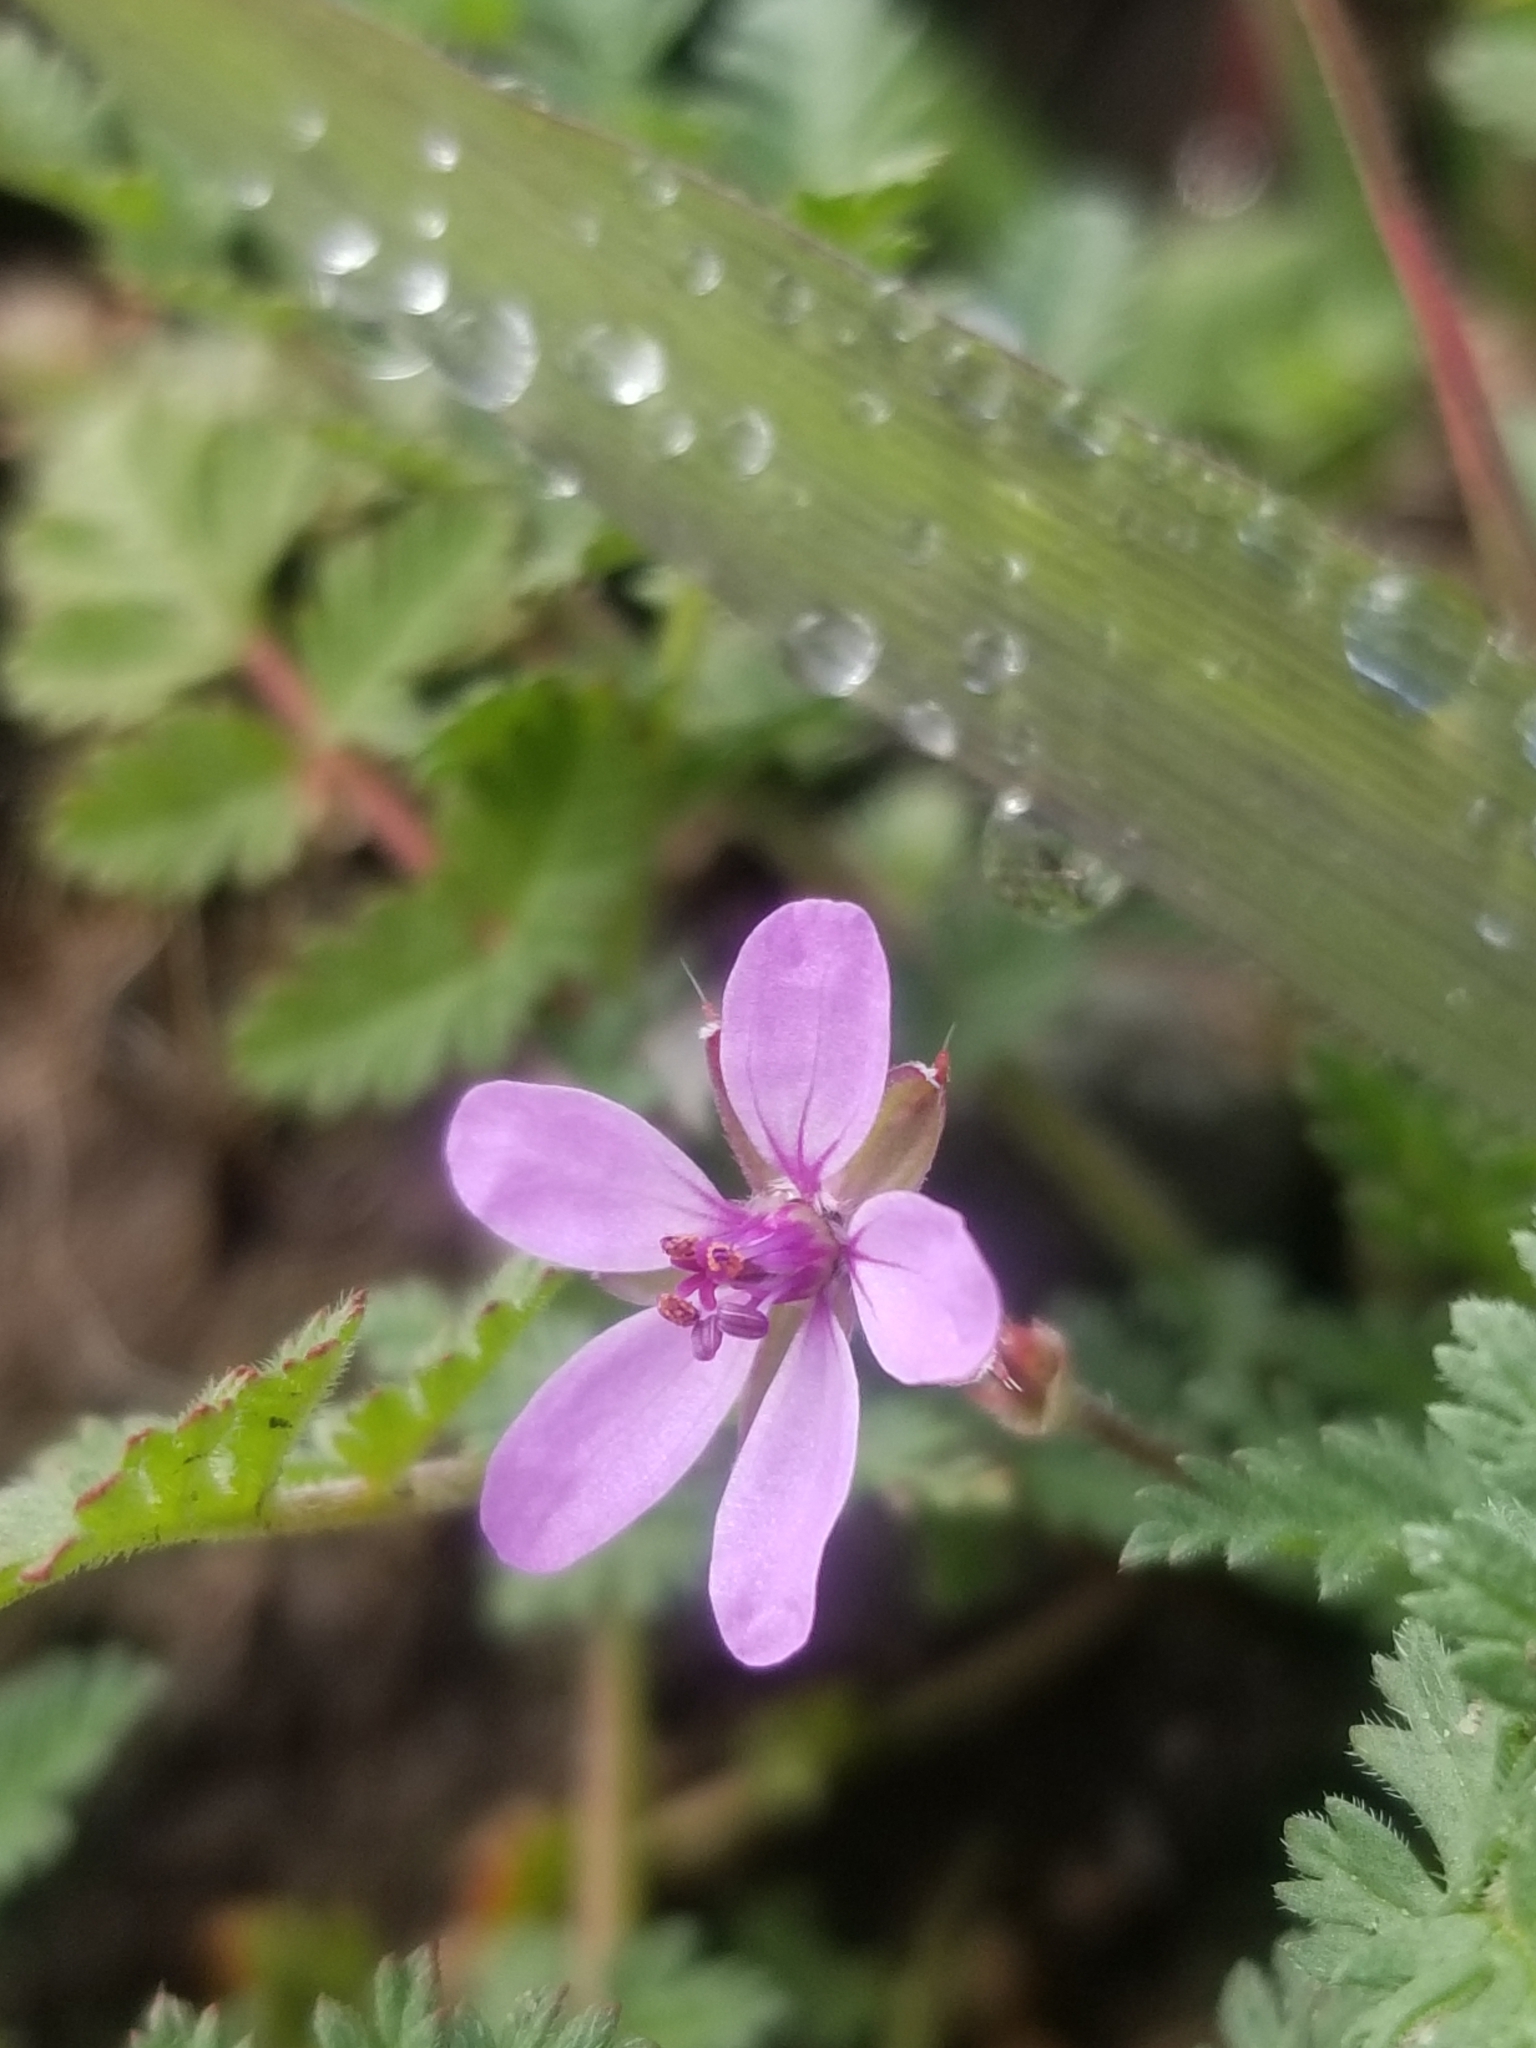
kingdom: Plantae
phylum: Tracheophyta
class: Magnoliopsida
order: Geraniales
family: Geraniaceae
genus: Erodium
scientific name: Erodium cicutarium
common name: Common stork's-bill
